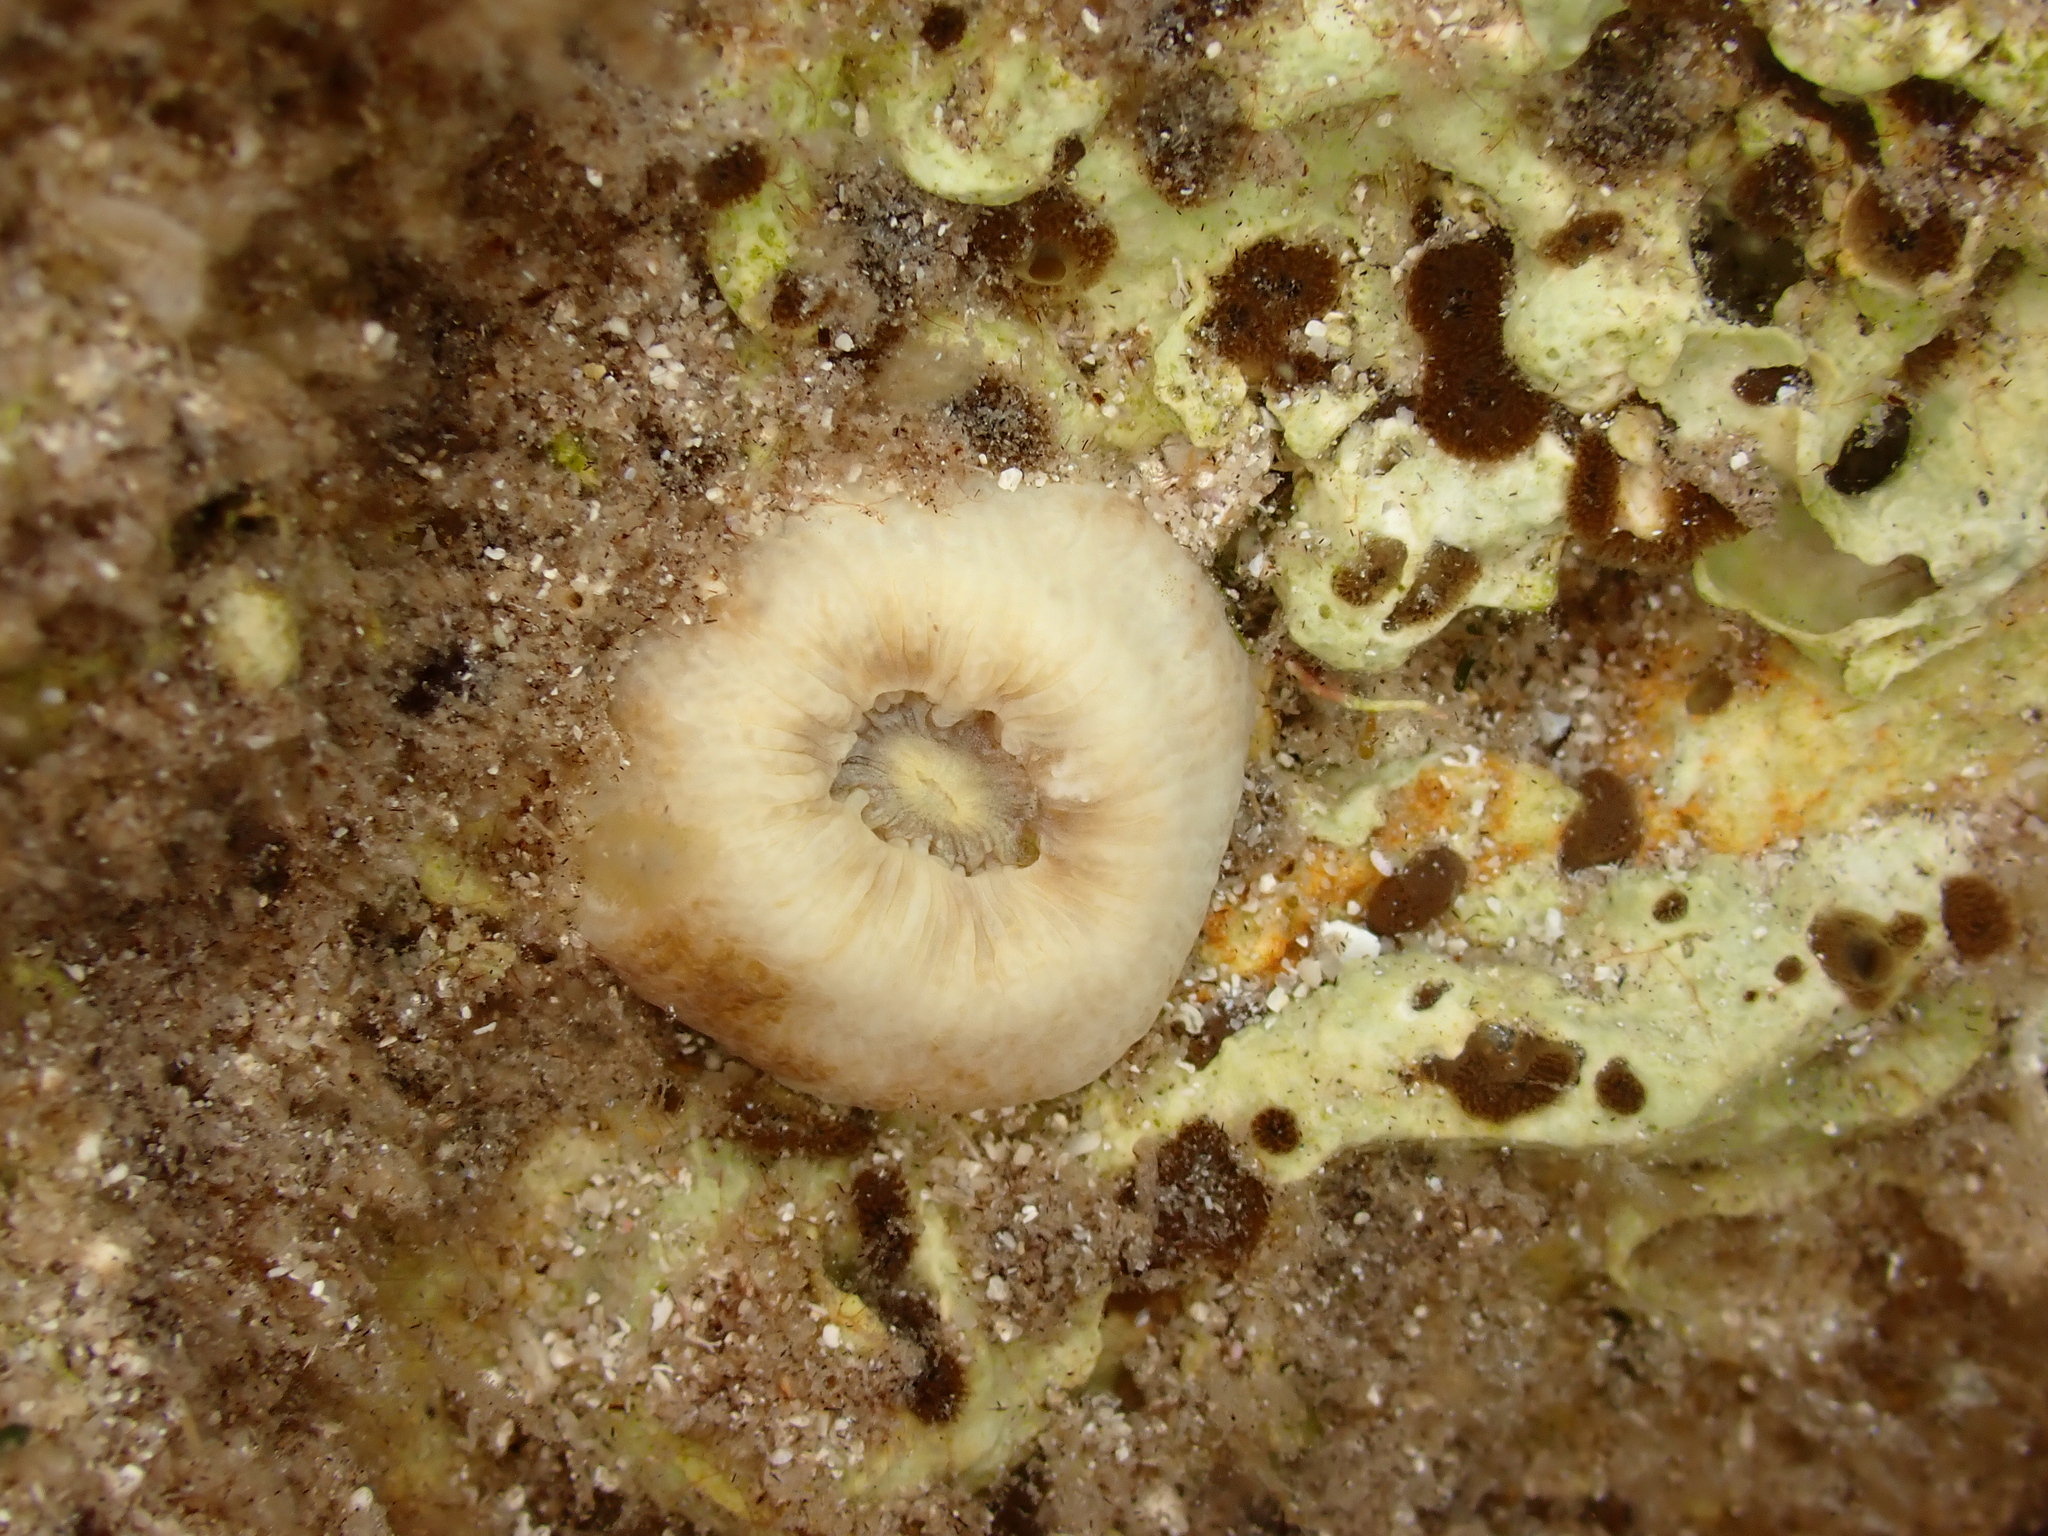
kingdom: Animalia
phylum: Cnidaria
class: Anthozoa
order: Scleractinia
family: Dendrophylliidae
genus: Balanophyllia
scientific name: Balanophyllia europaea
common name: Scarlet coral
